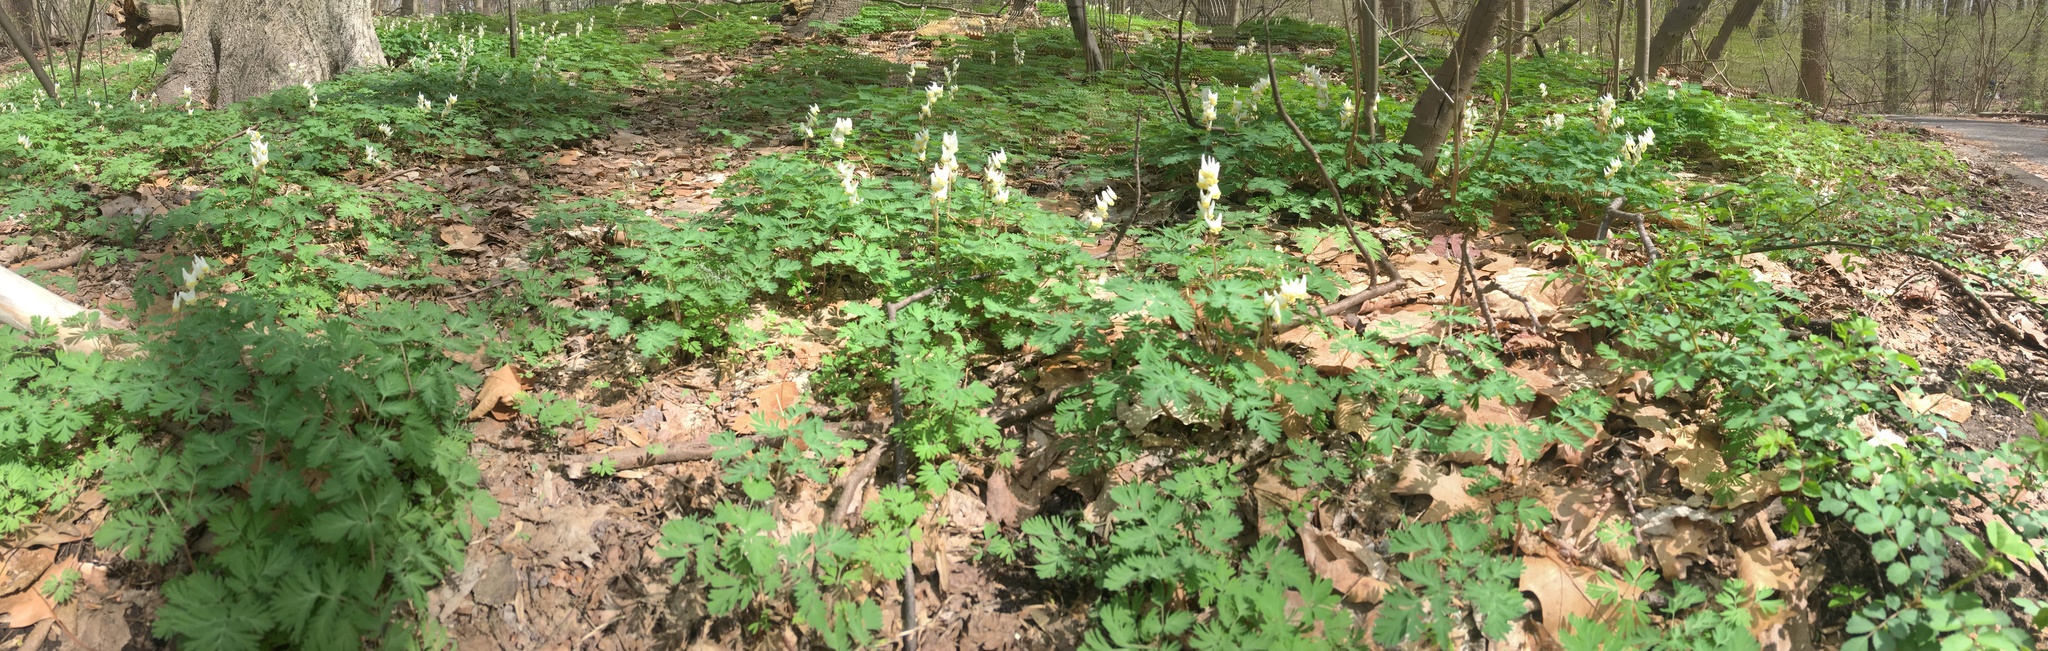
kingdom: Plantae
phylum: Tracheophyta
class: Magnoliopsida
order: Ranunculales
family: Papaveraceae
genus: Dicentra
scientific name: Dicentra cucullaria
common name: Dutchman's breeches
